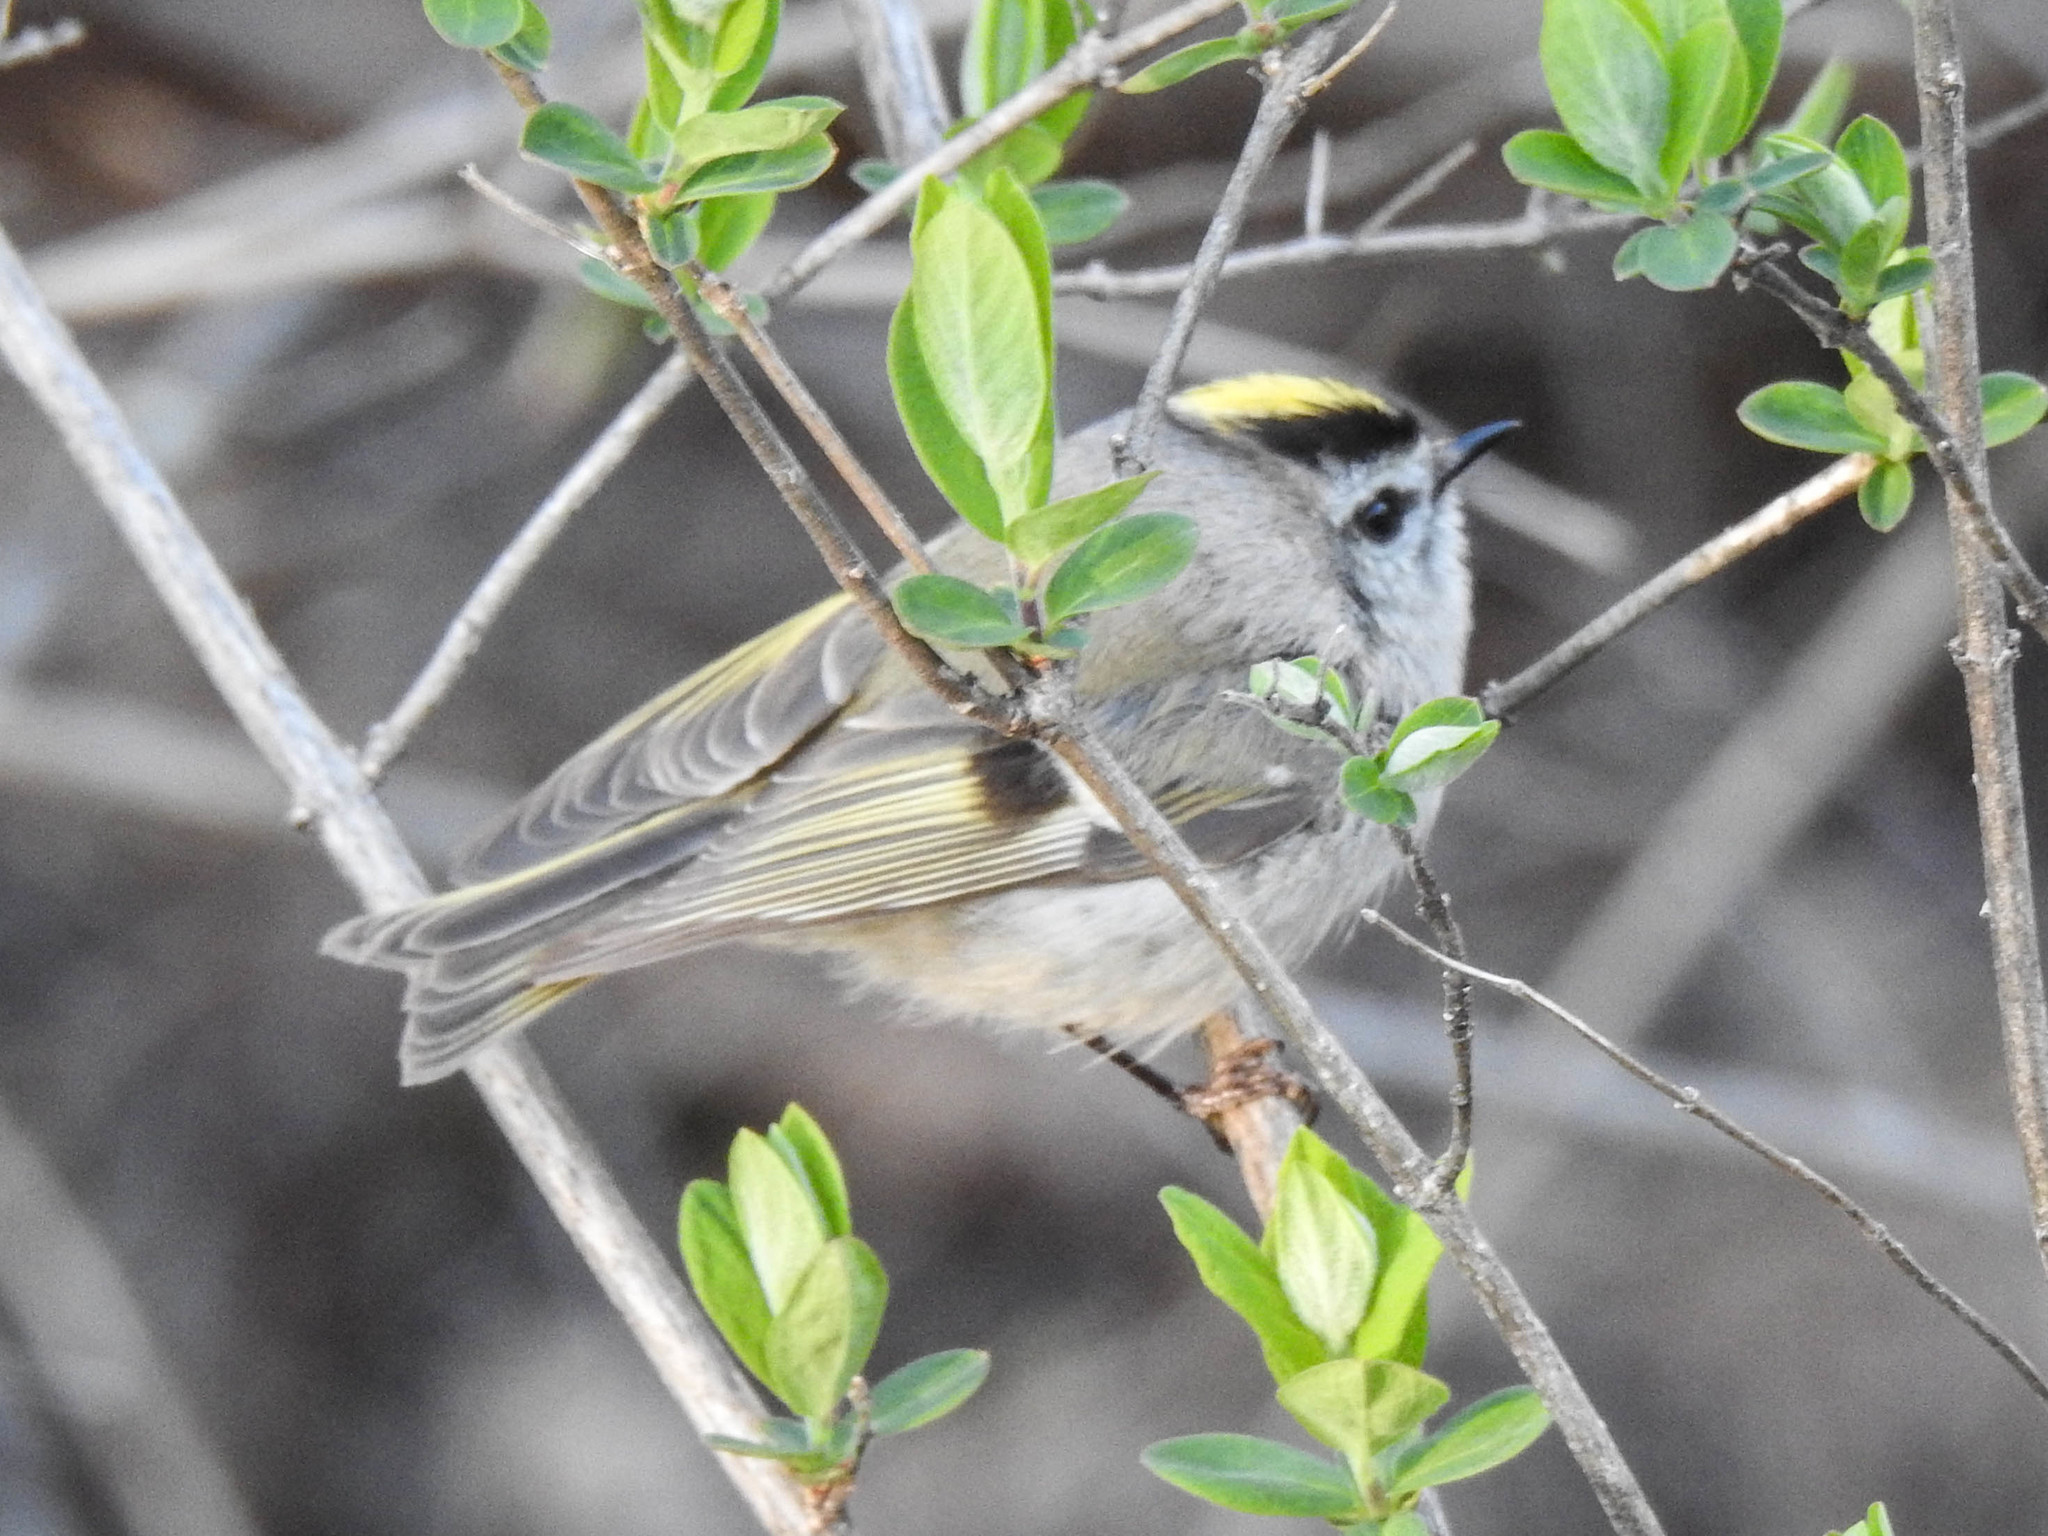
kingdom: Animalia
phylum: Chordata
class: Aves
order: Passeriformes
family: Regulidae
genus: Regulus
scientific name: Regulus satrapa
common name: Golden-crowned kinglet
